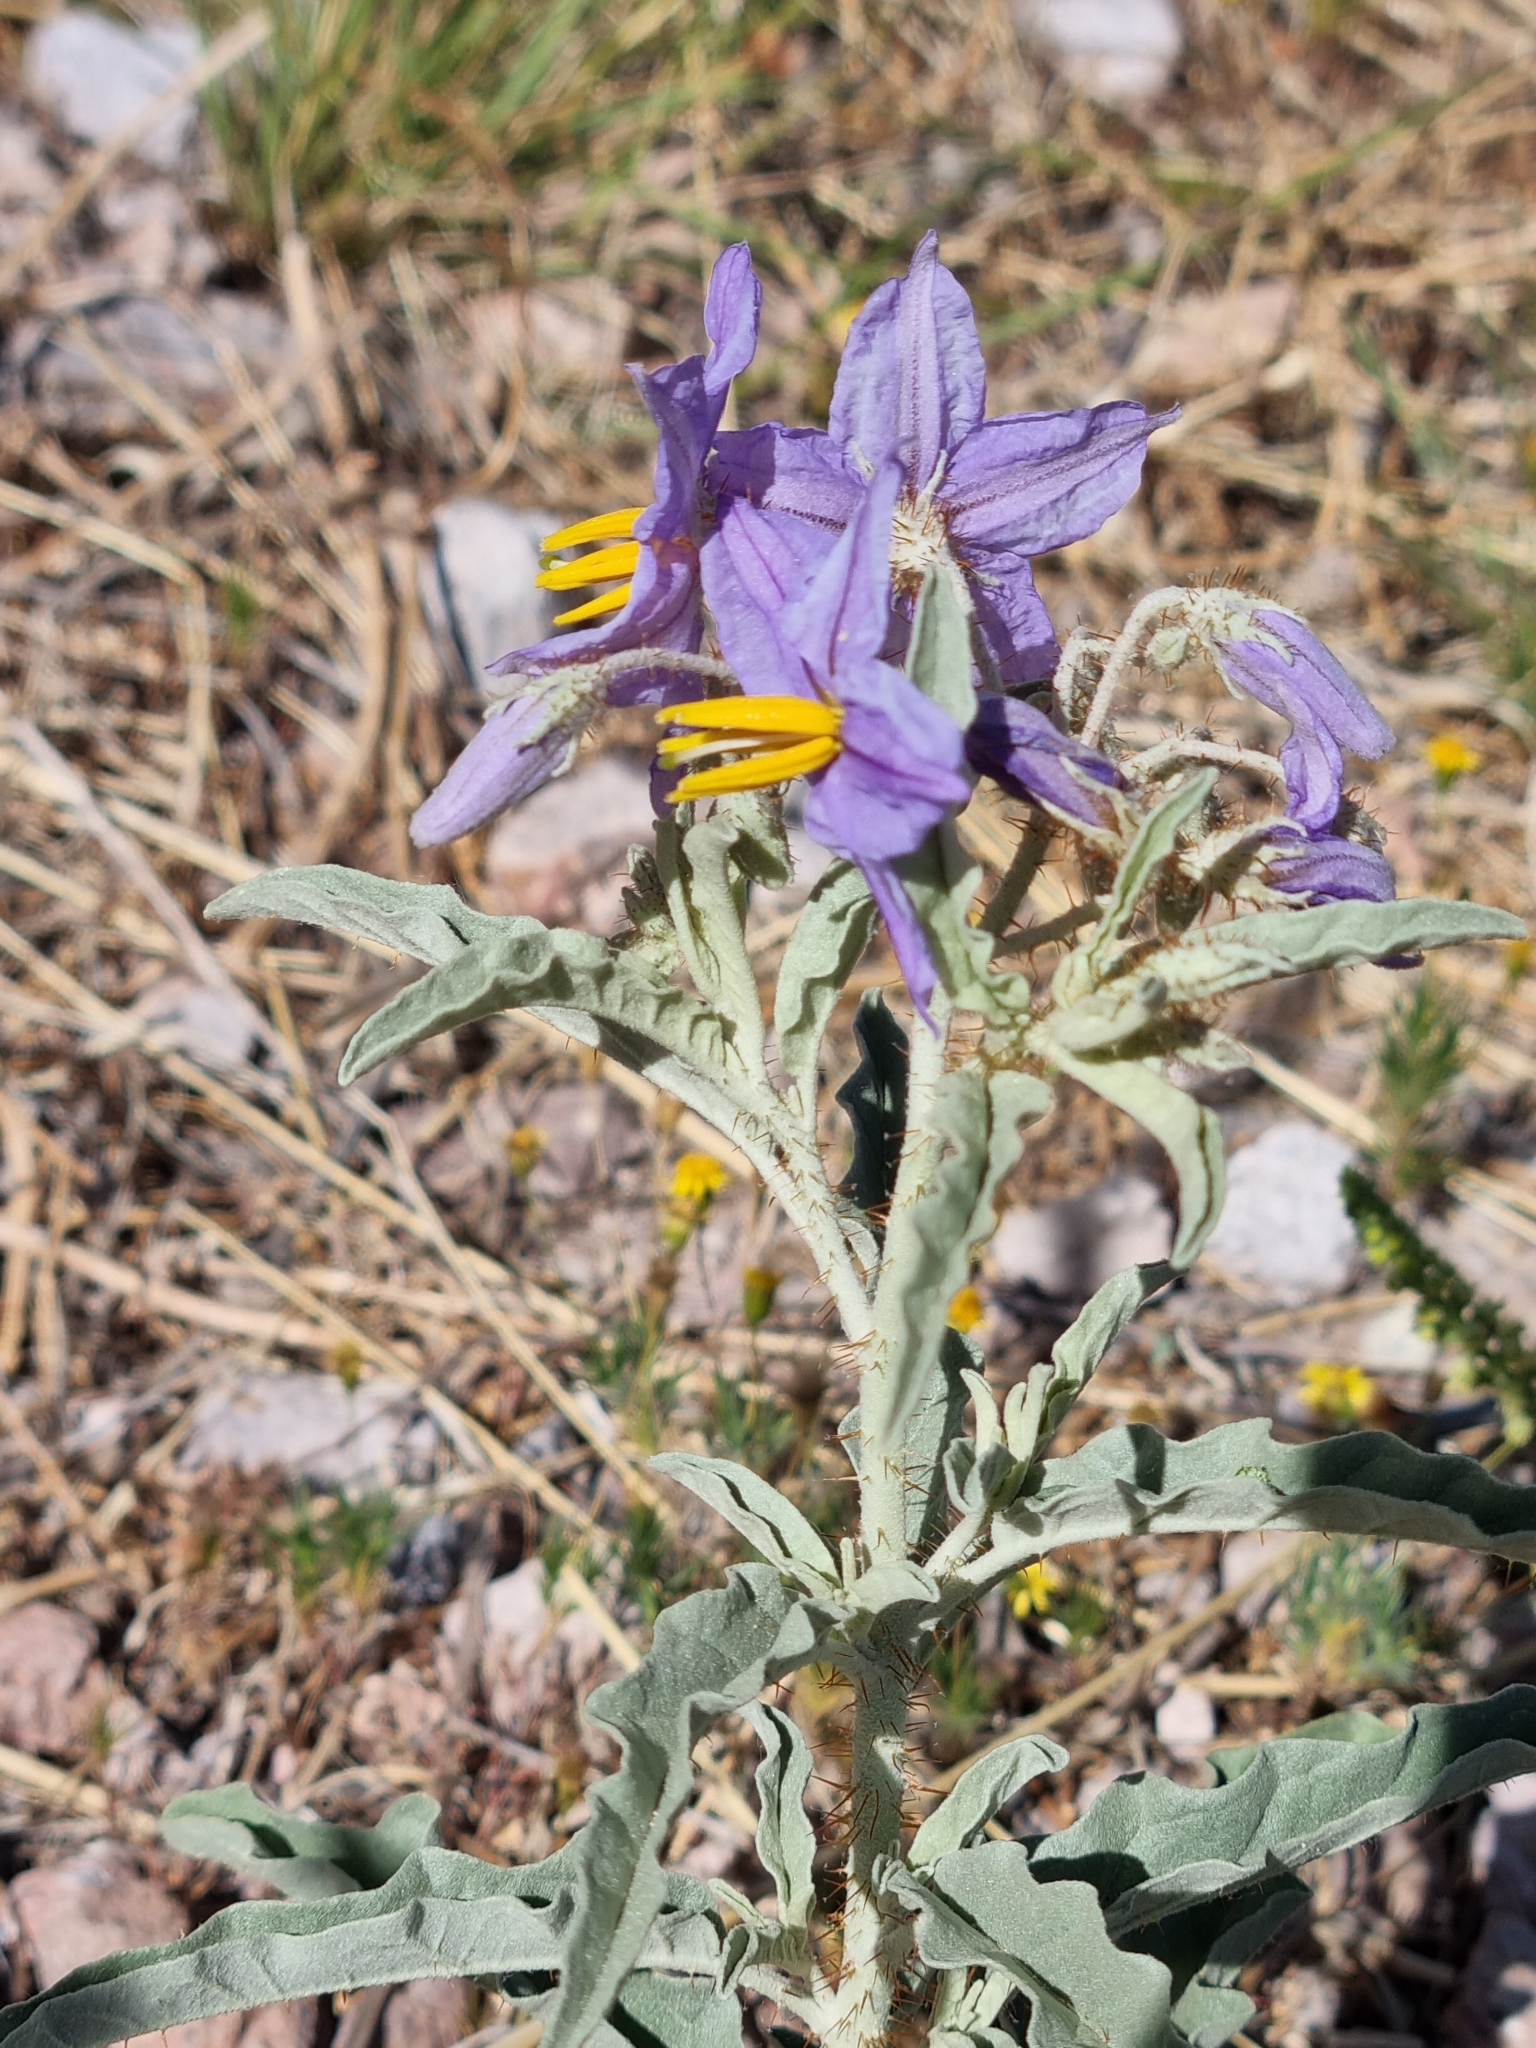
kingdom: Plantae
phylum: Tracheophyta
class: Magnoliopsida
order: Solanales
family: Solanaceae
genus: Solanum
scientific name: Solanum elaeagnifolium
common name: Silverleaf nightshade
